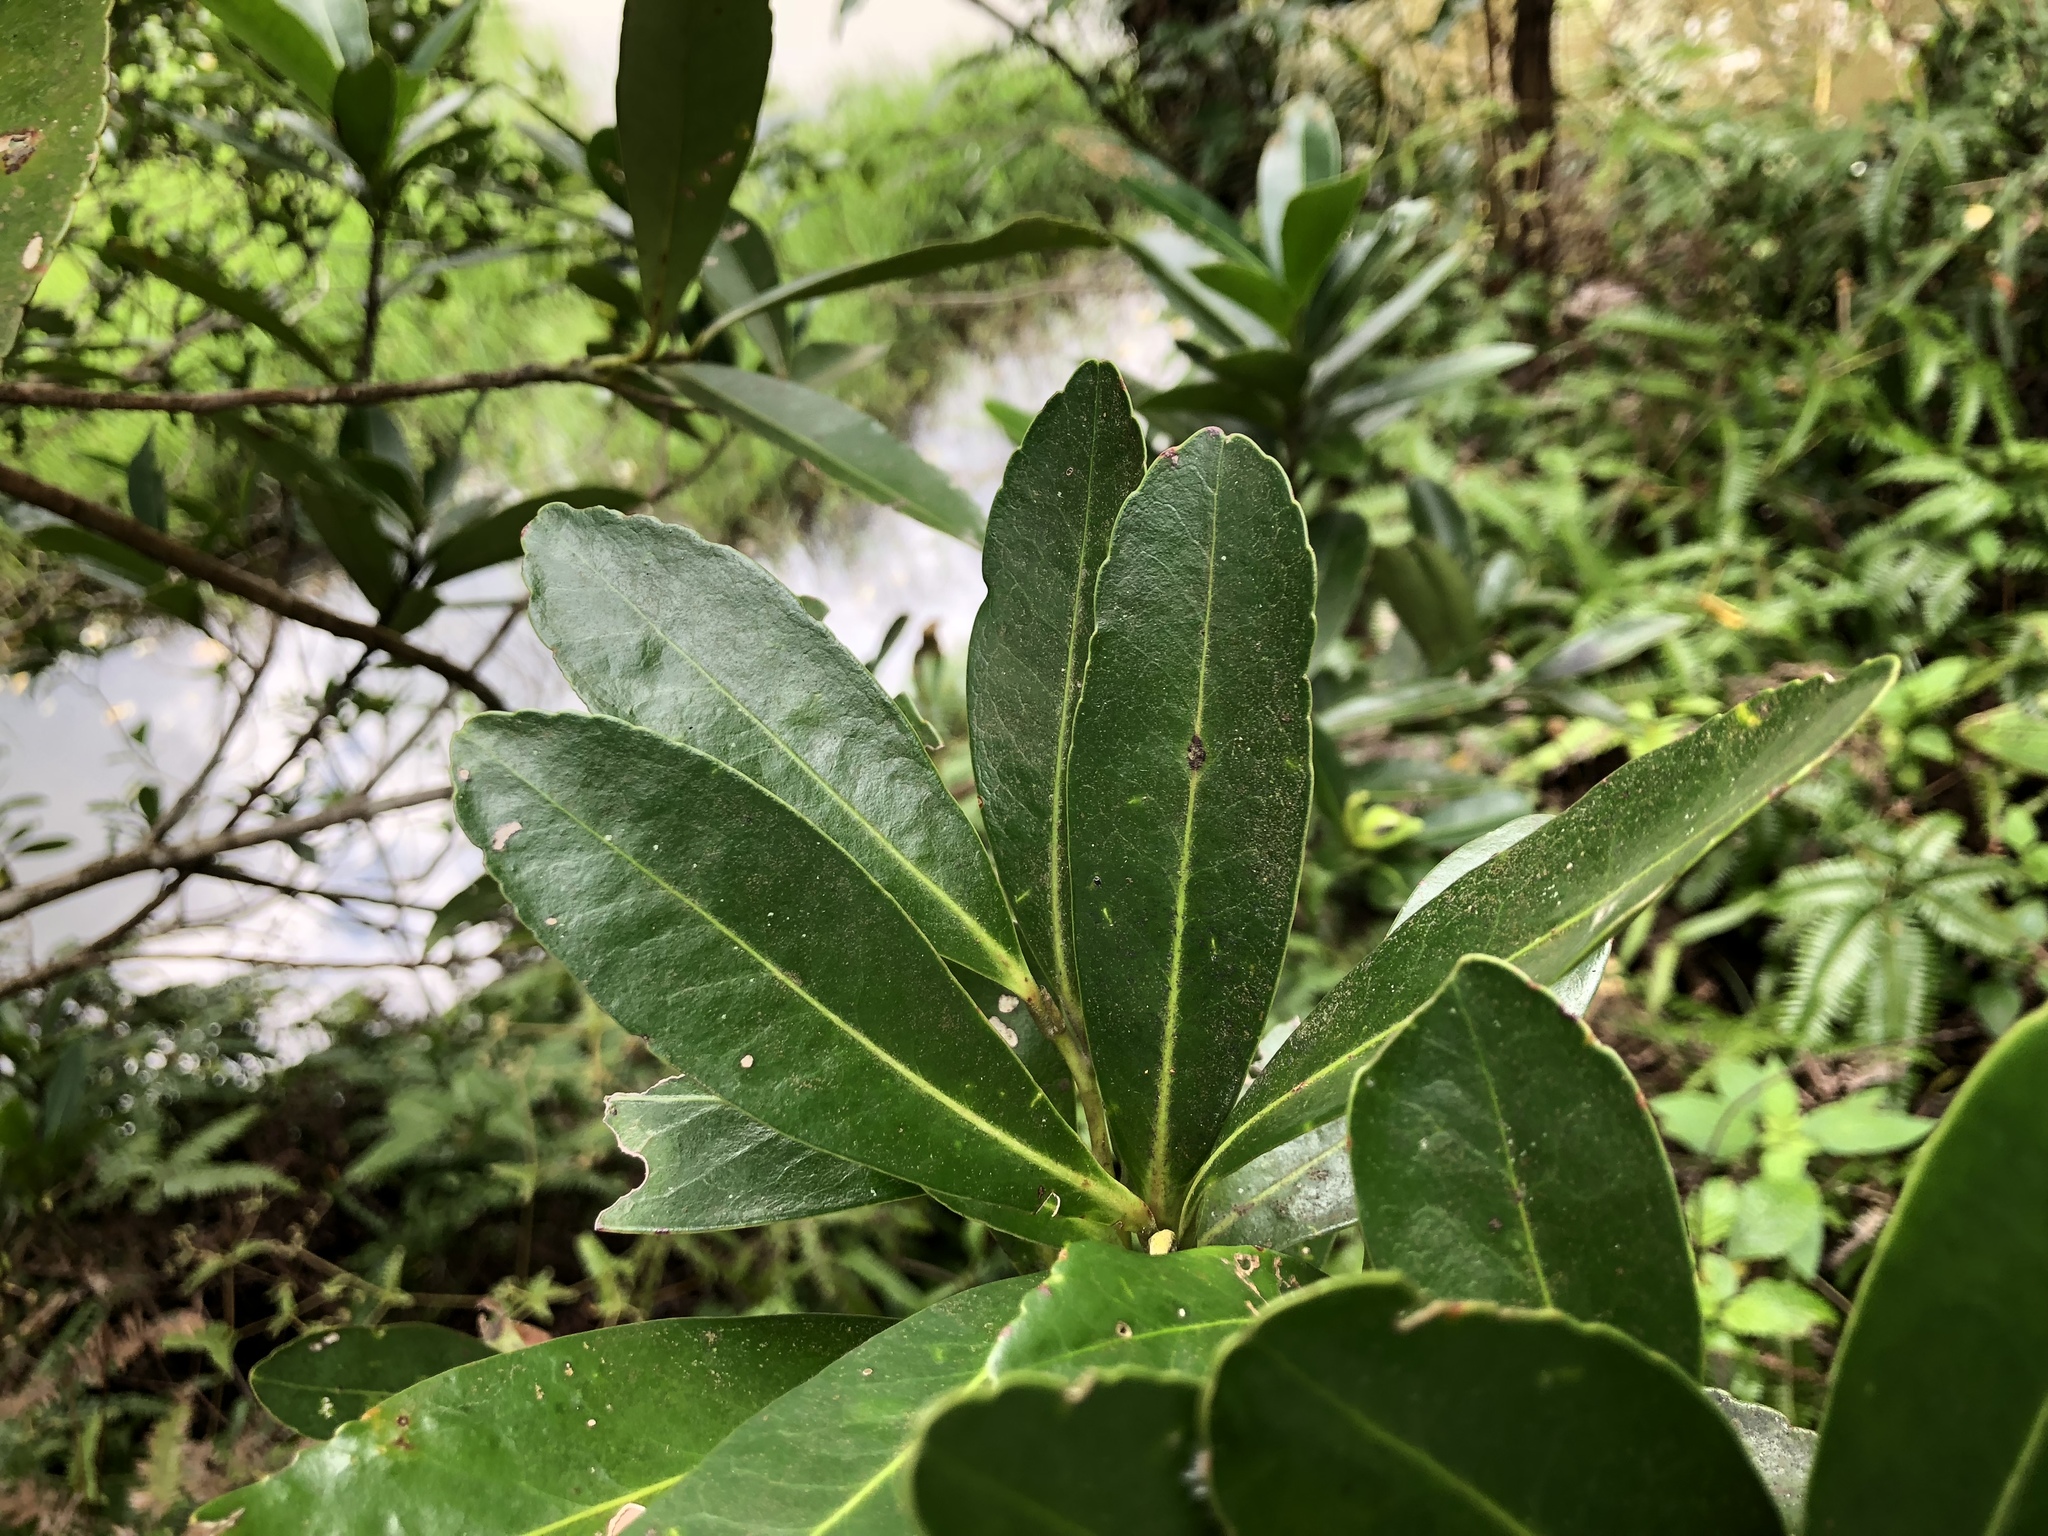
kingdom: Plantae
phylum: Tracheophyta
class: Magnoliopsida
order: Ericales
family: Theaceae
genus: Polyspora
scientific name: Polyspora axillaris
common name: Fried egg tree
